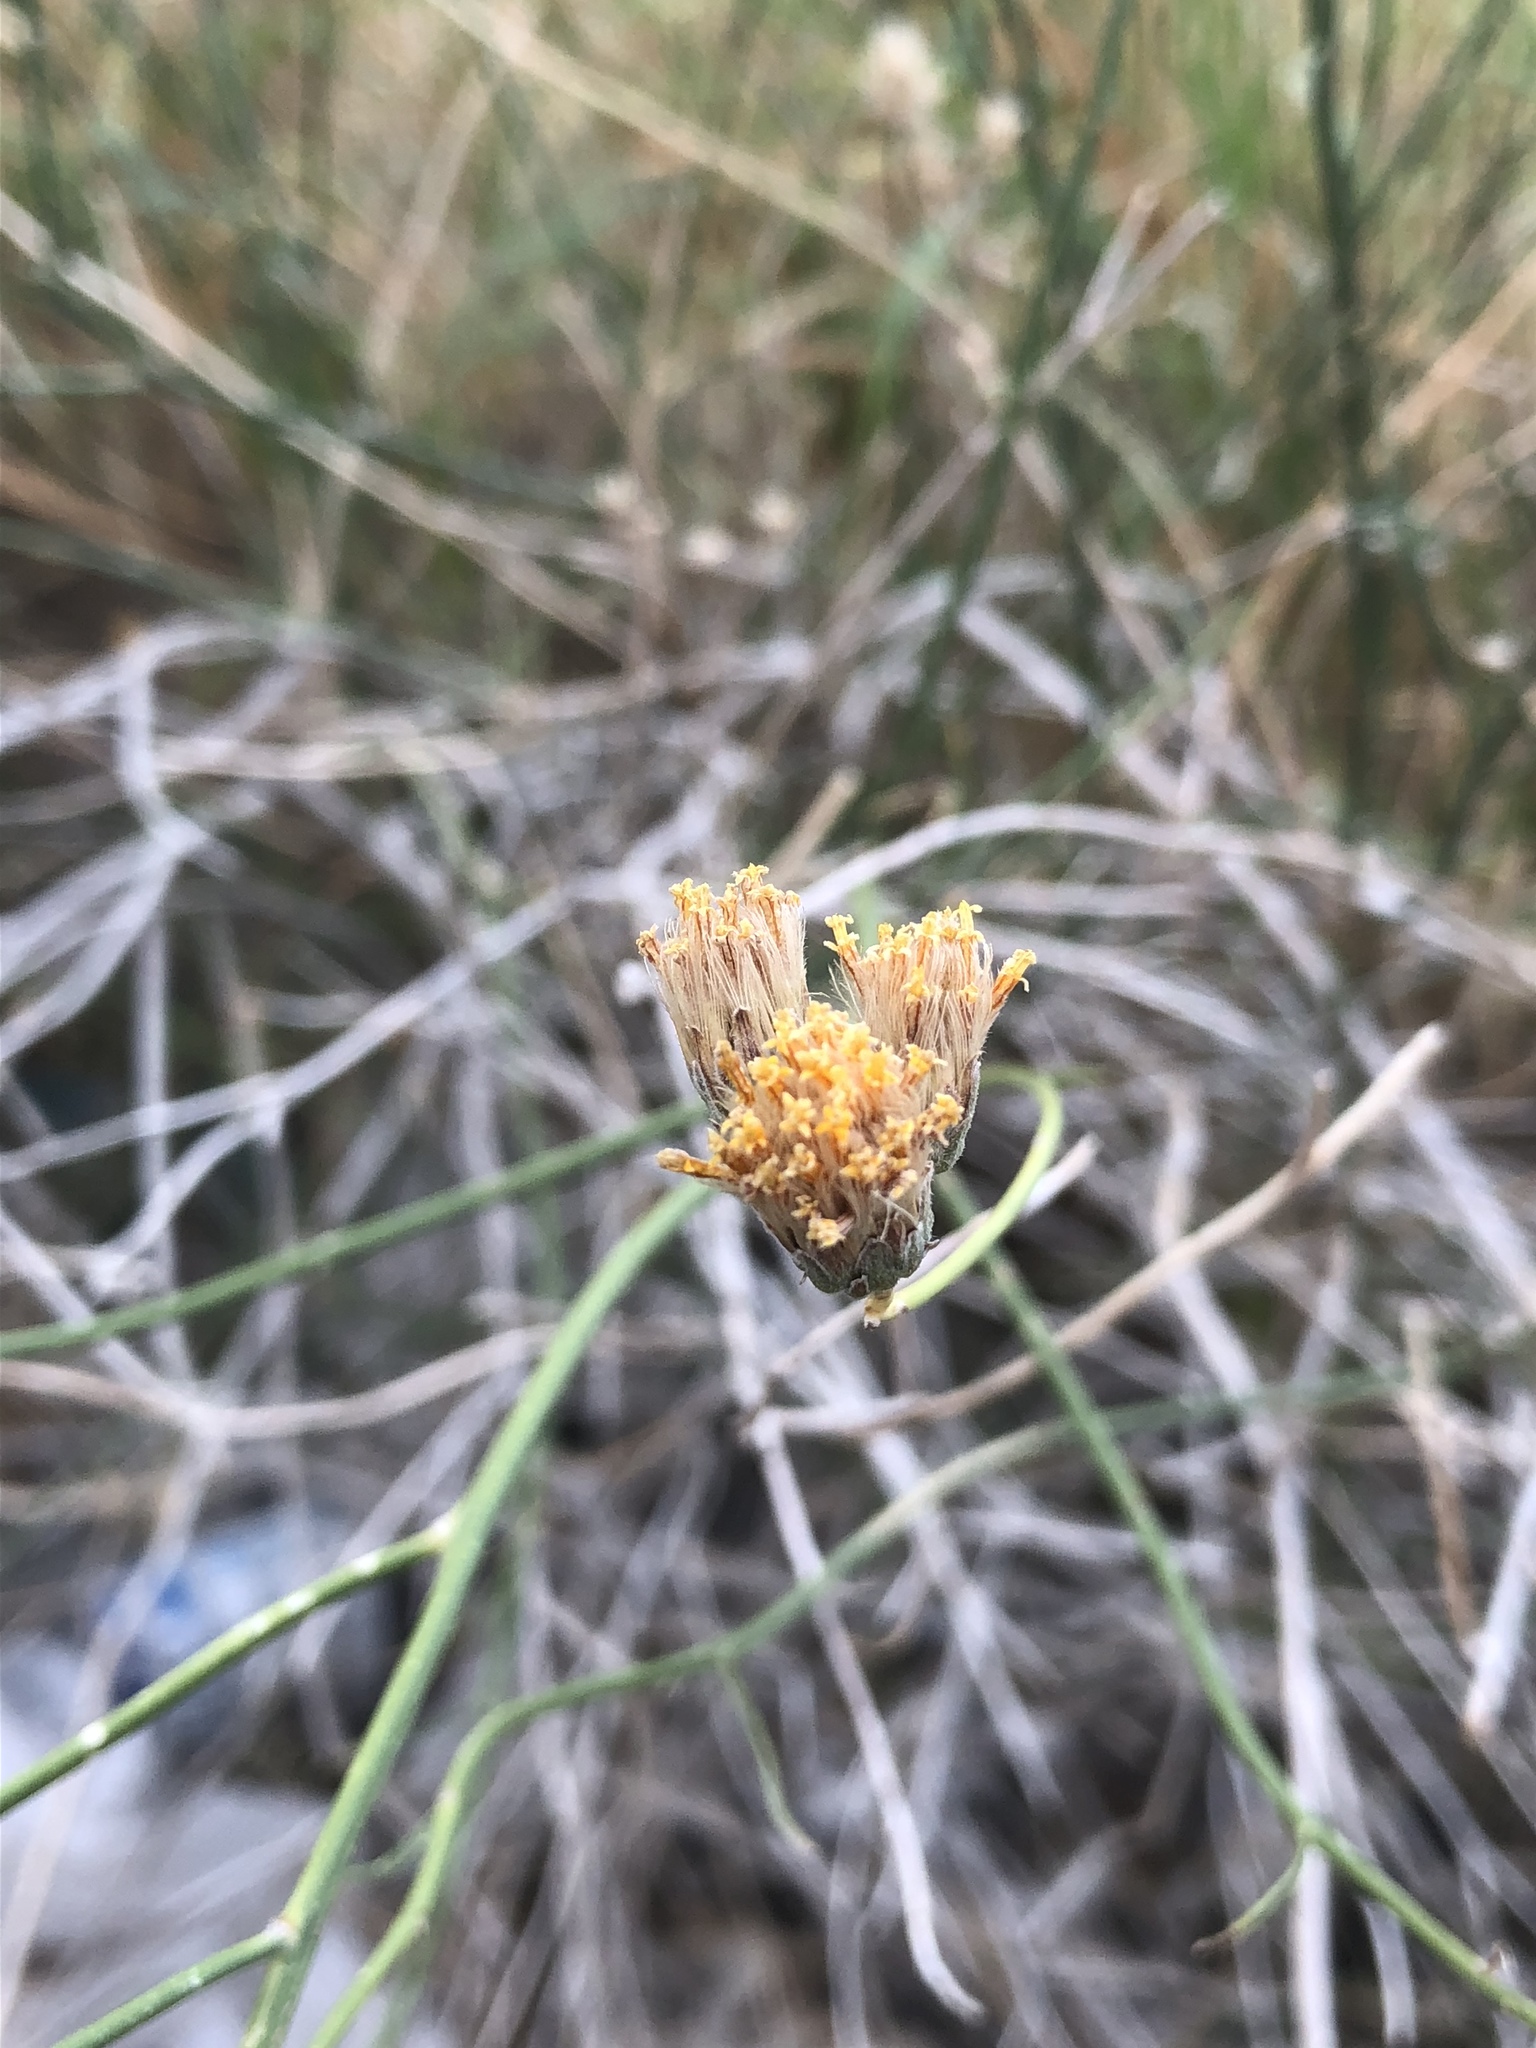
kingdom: Plantae
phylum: Tracheophyta
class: Magnoliopsida
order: Asterales
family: Asteraceae
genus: Bebbia
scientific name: Bebbia juncea
